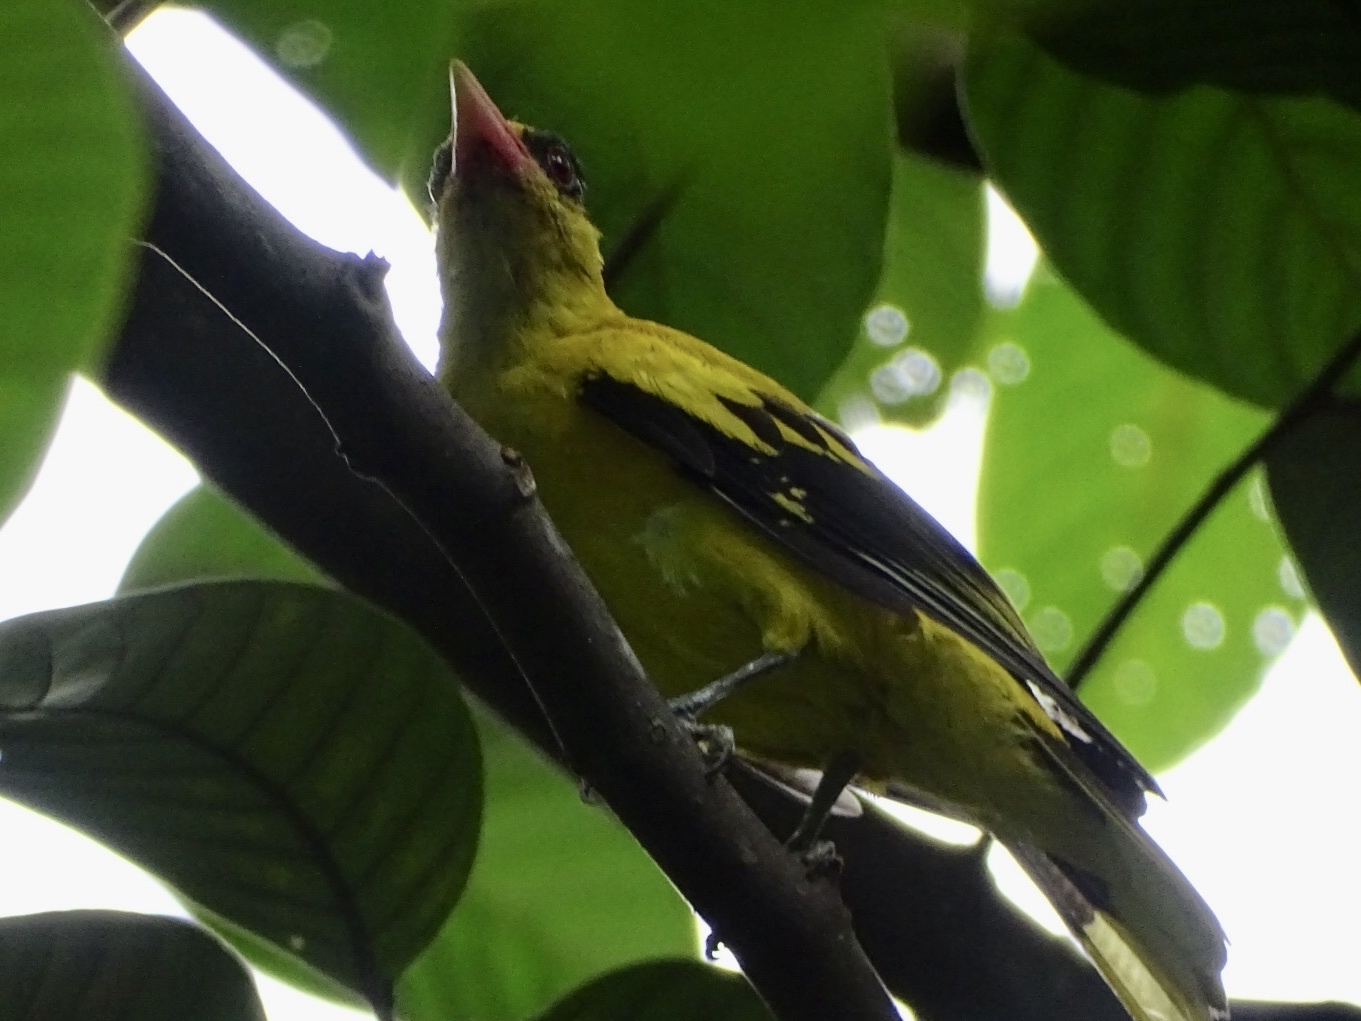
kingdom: Animalia
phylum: Chordata
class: Aves
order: Passeriformes
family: Oriolidae
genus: Oriolus
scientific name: Oriolus chinensis
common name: Black-naped oriole
